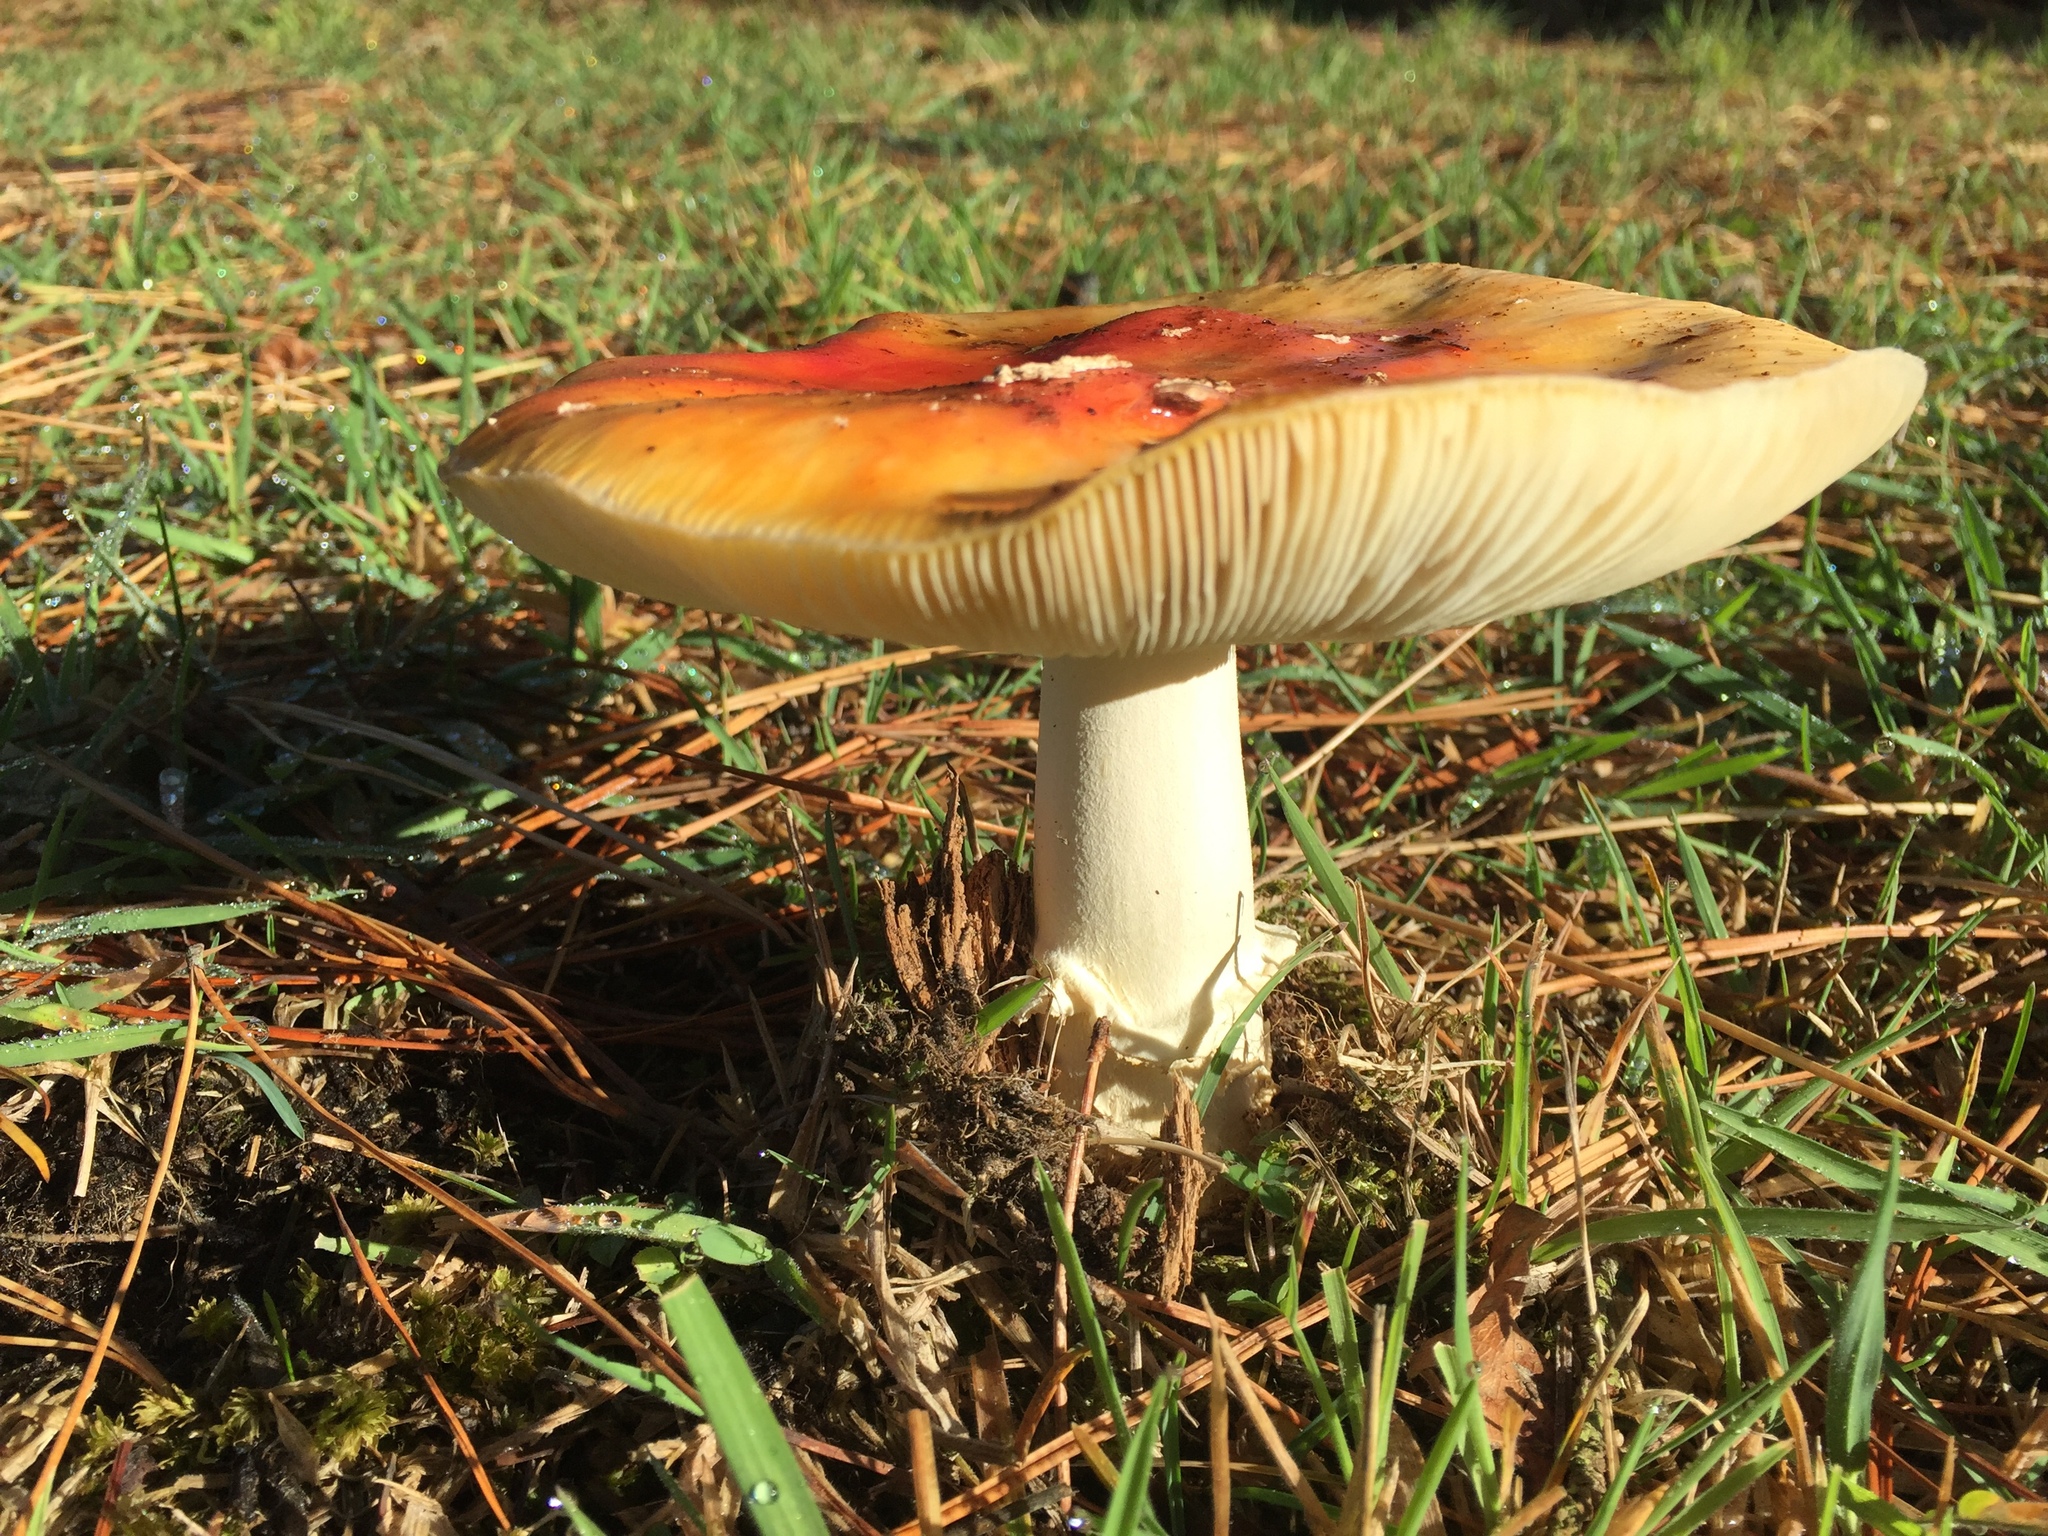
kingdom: Fungi
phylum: Basidiomycota
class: Agaricomycetes
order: Agaricales
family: Amanitaceae
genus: Amanita
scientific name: Amanita muscaria
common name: Fly agaric
